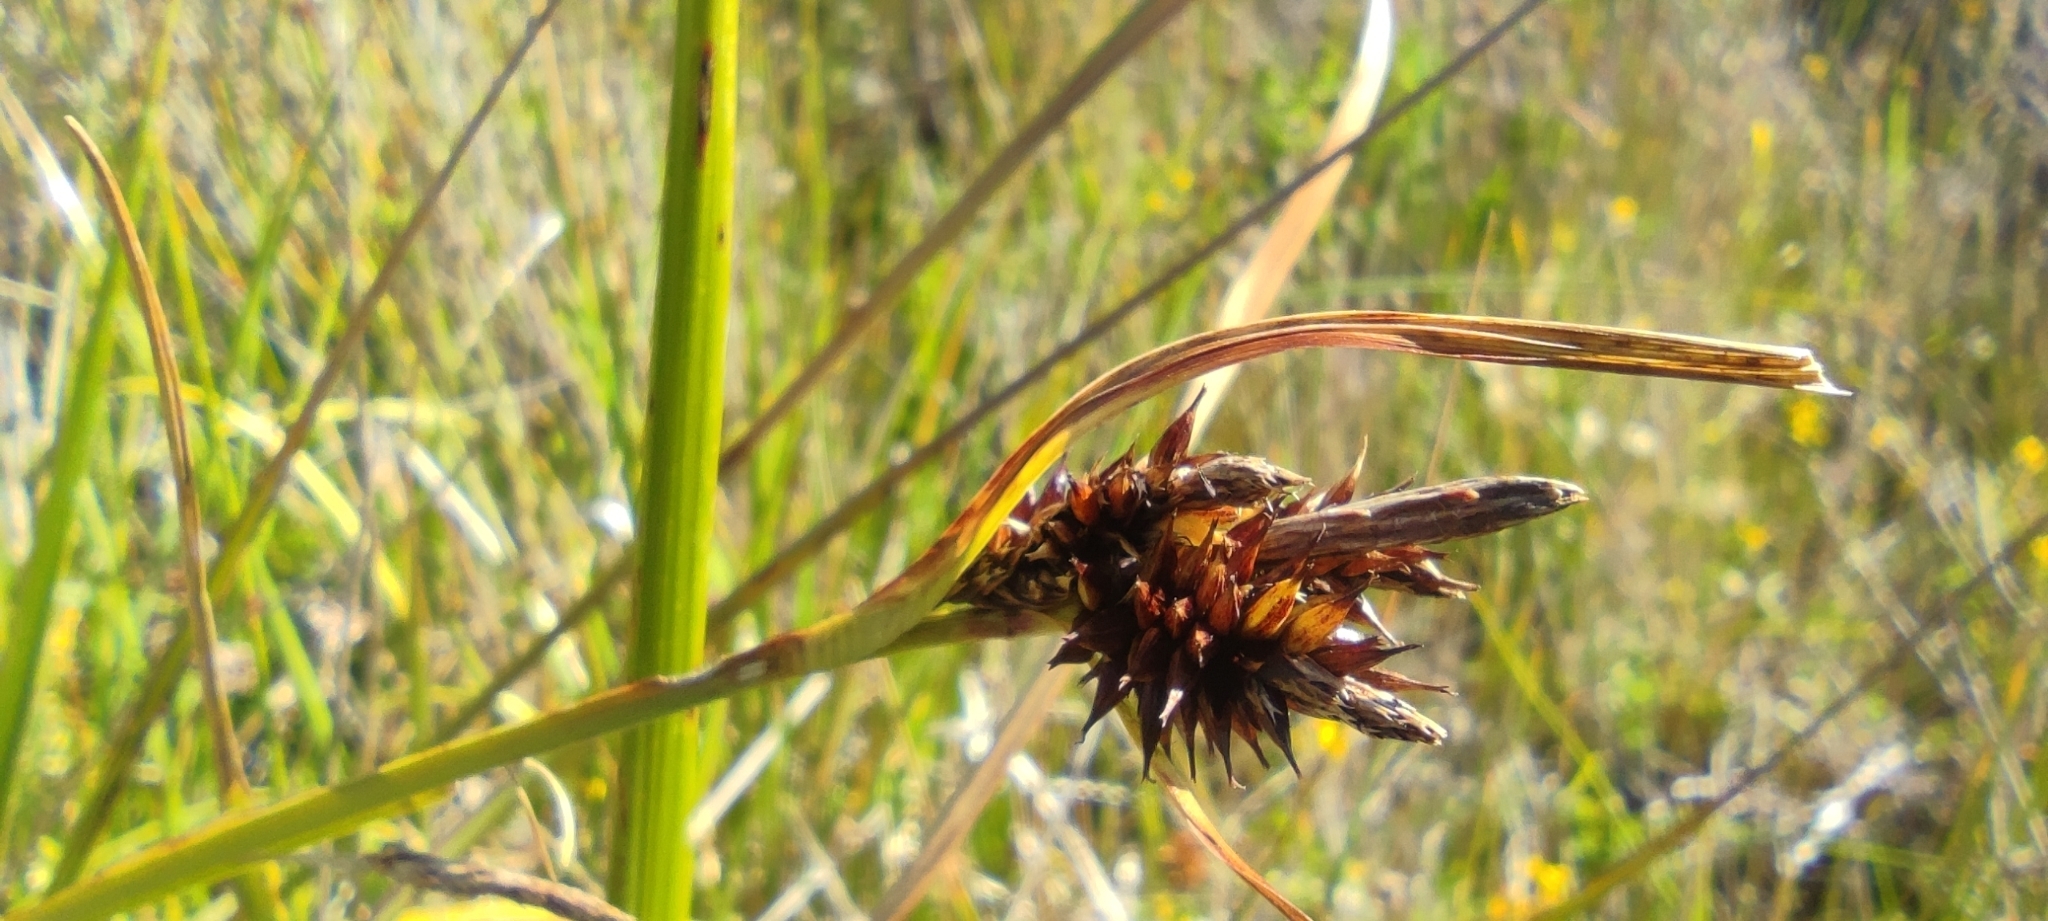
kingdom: Plantae
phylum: Tracheophyta
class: Liliopsida
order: Poales
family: Cyperaceae
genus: Carex
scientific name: Carex werdermannii
